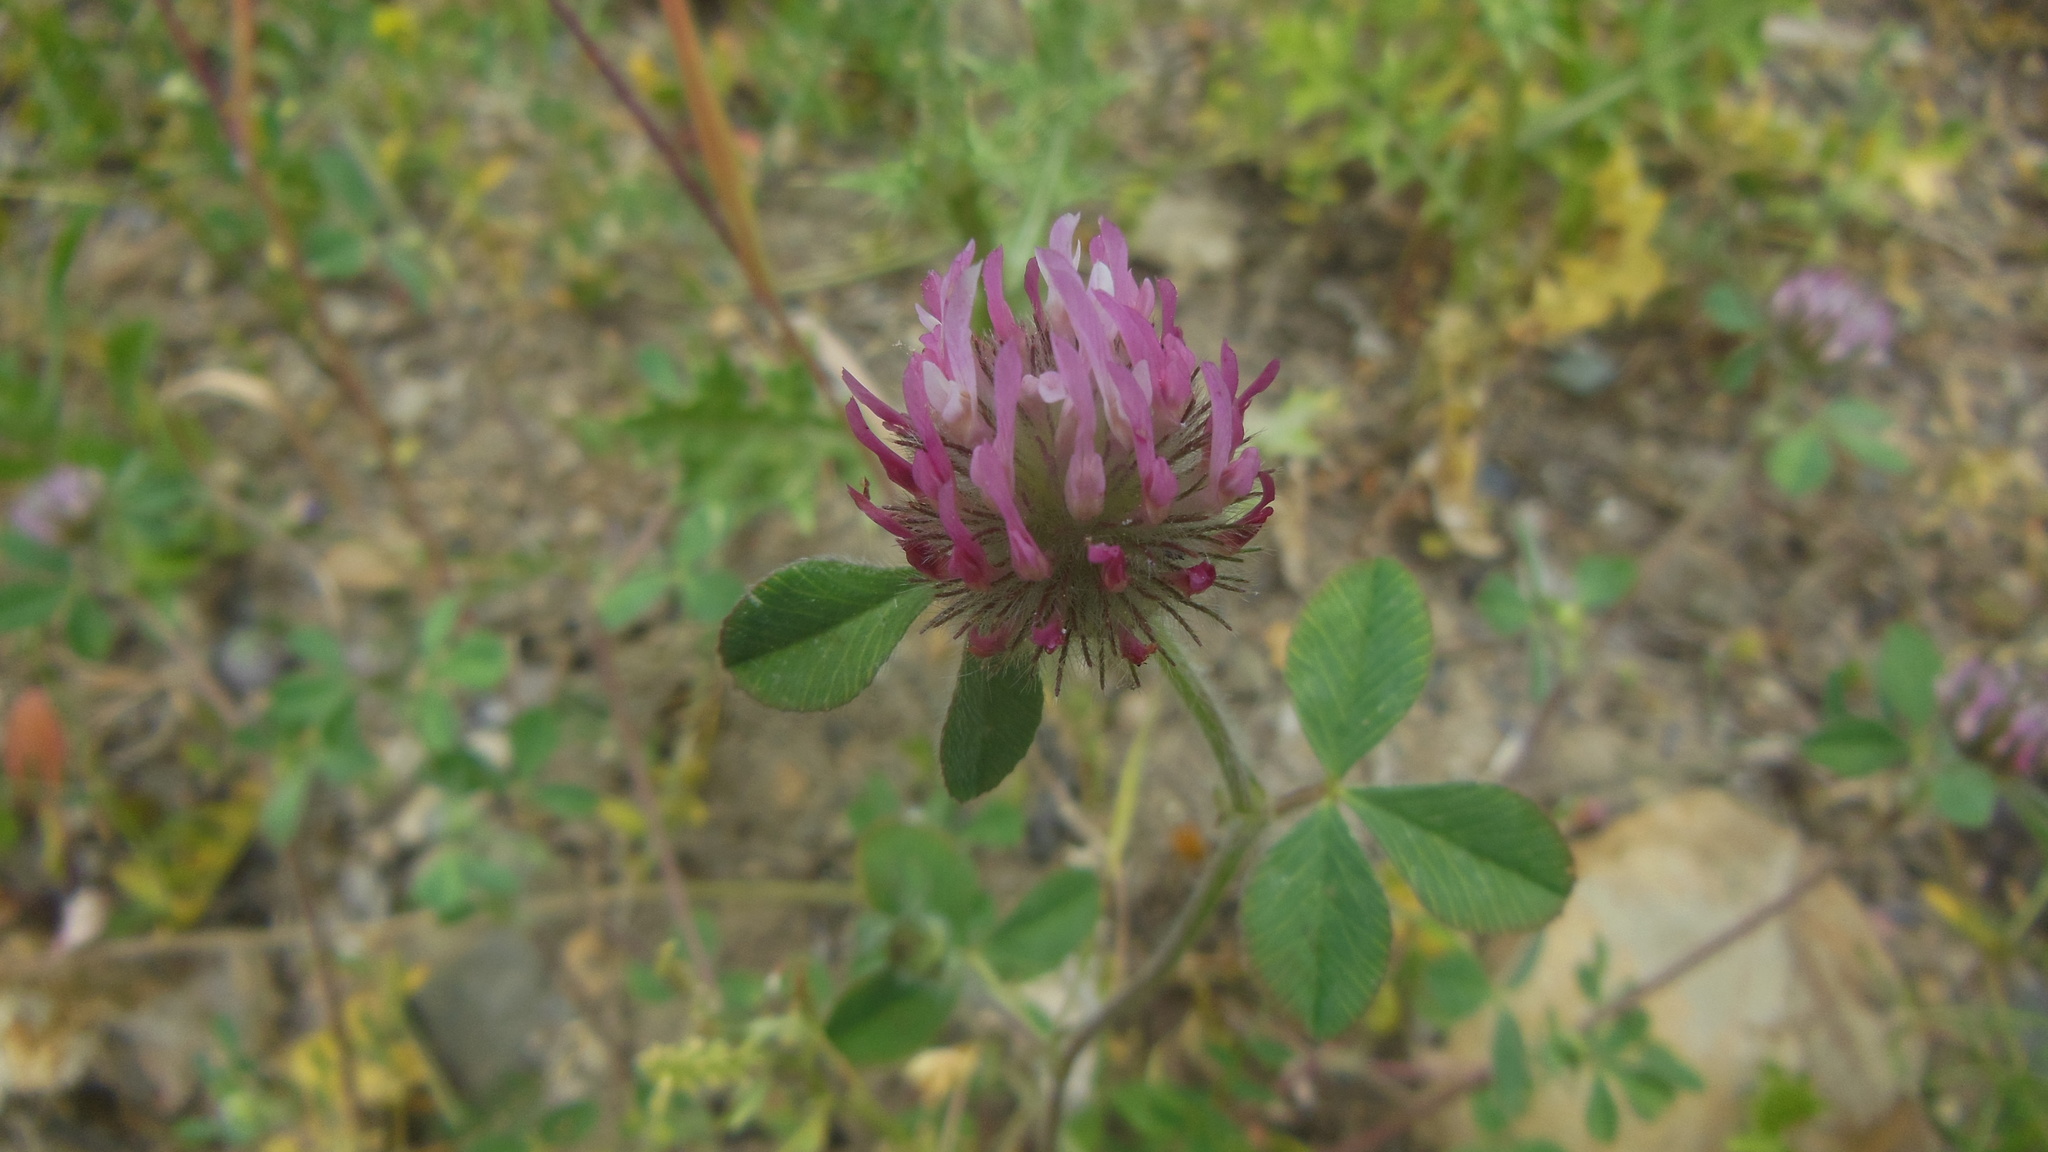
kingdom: Plantae
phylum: Tracheophyta
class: Magnoliopsida
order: Fabales
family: Fabaceae
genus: Trifolium
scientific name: Trifolium hirtum
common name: Rose clover
